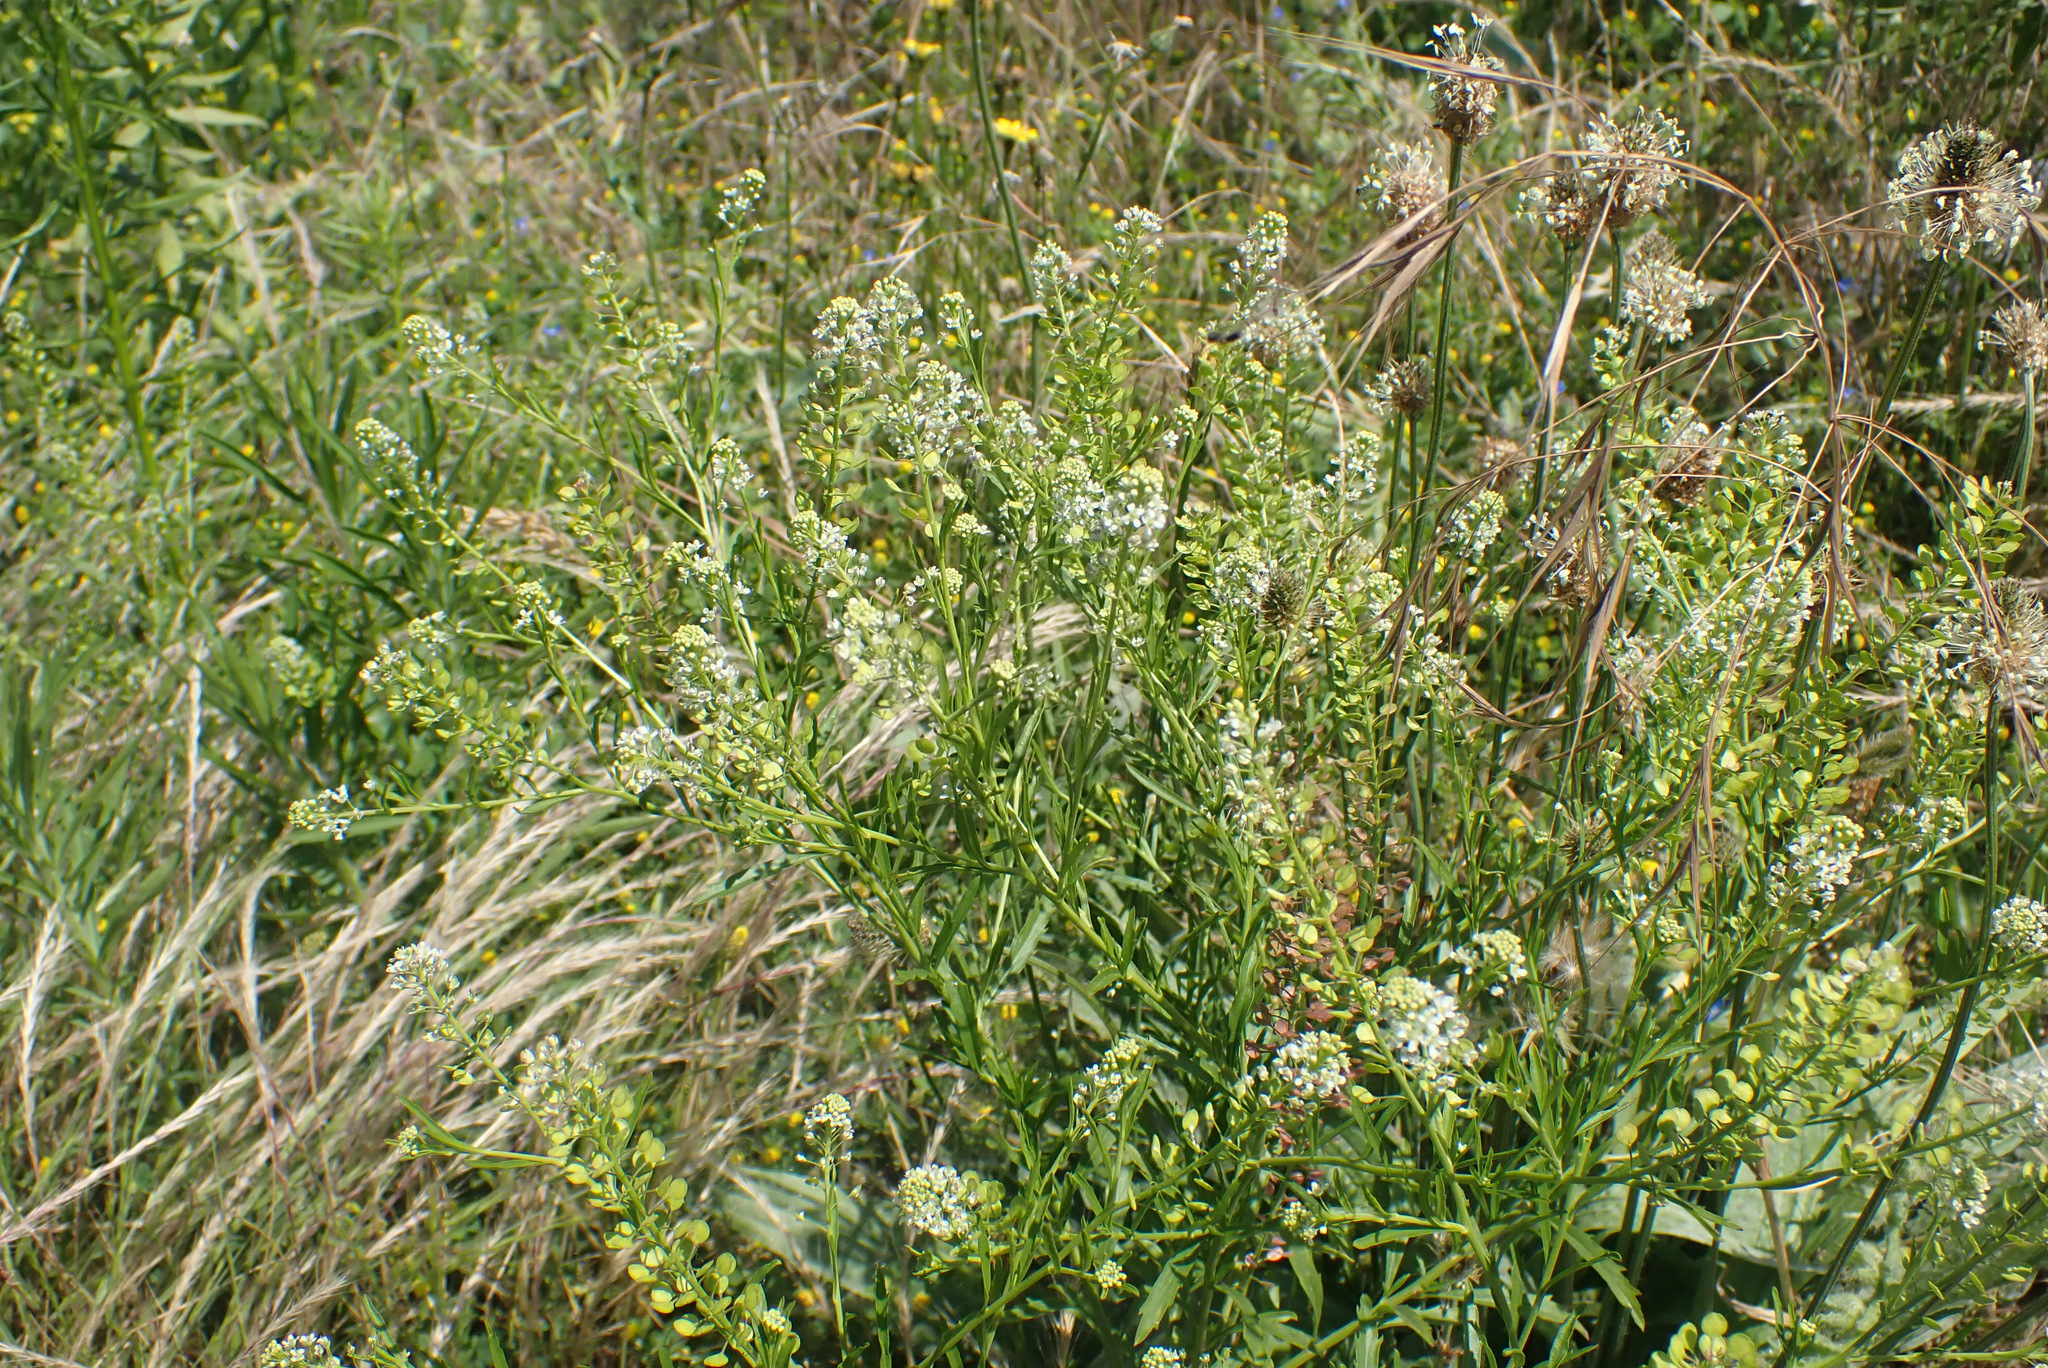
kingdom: Plantae
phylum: Tracheophyta
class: Magnoliopsida
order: Brassicales
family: Brassicaceae
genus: Lepidium
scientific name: Lepidium virginicum
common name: Least pepperwort
